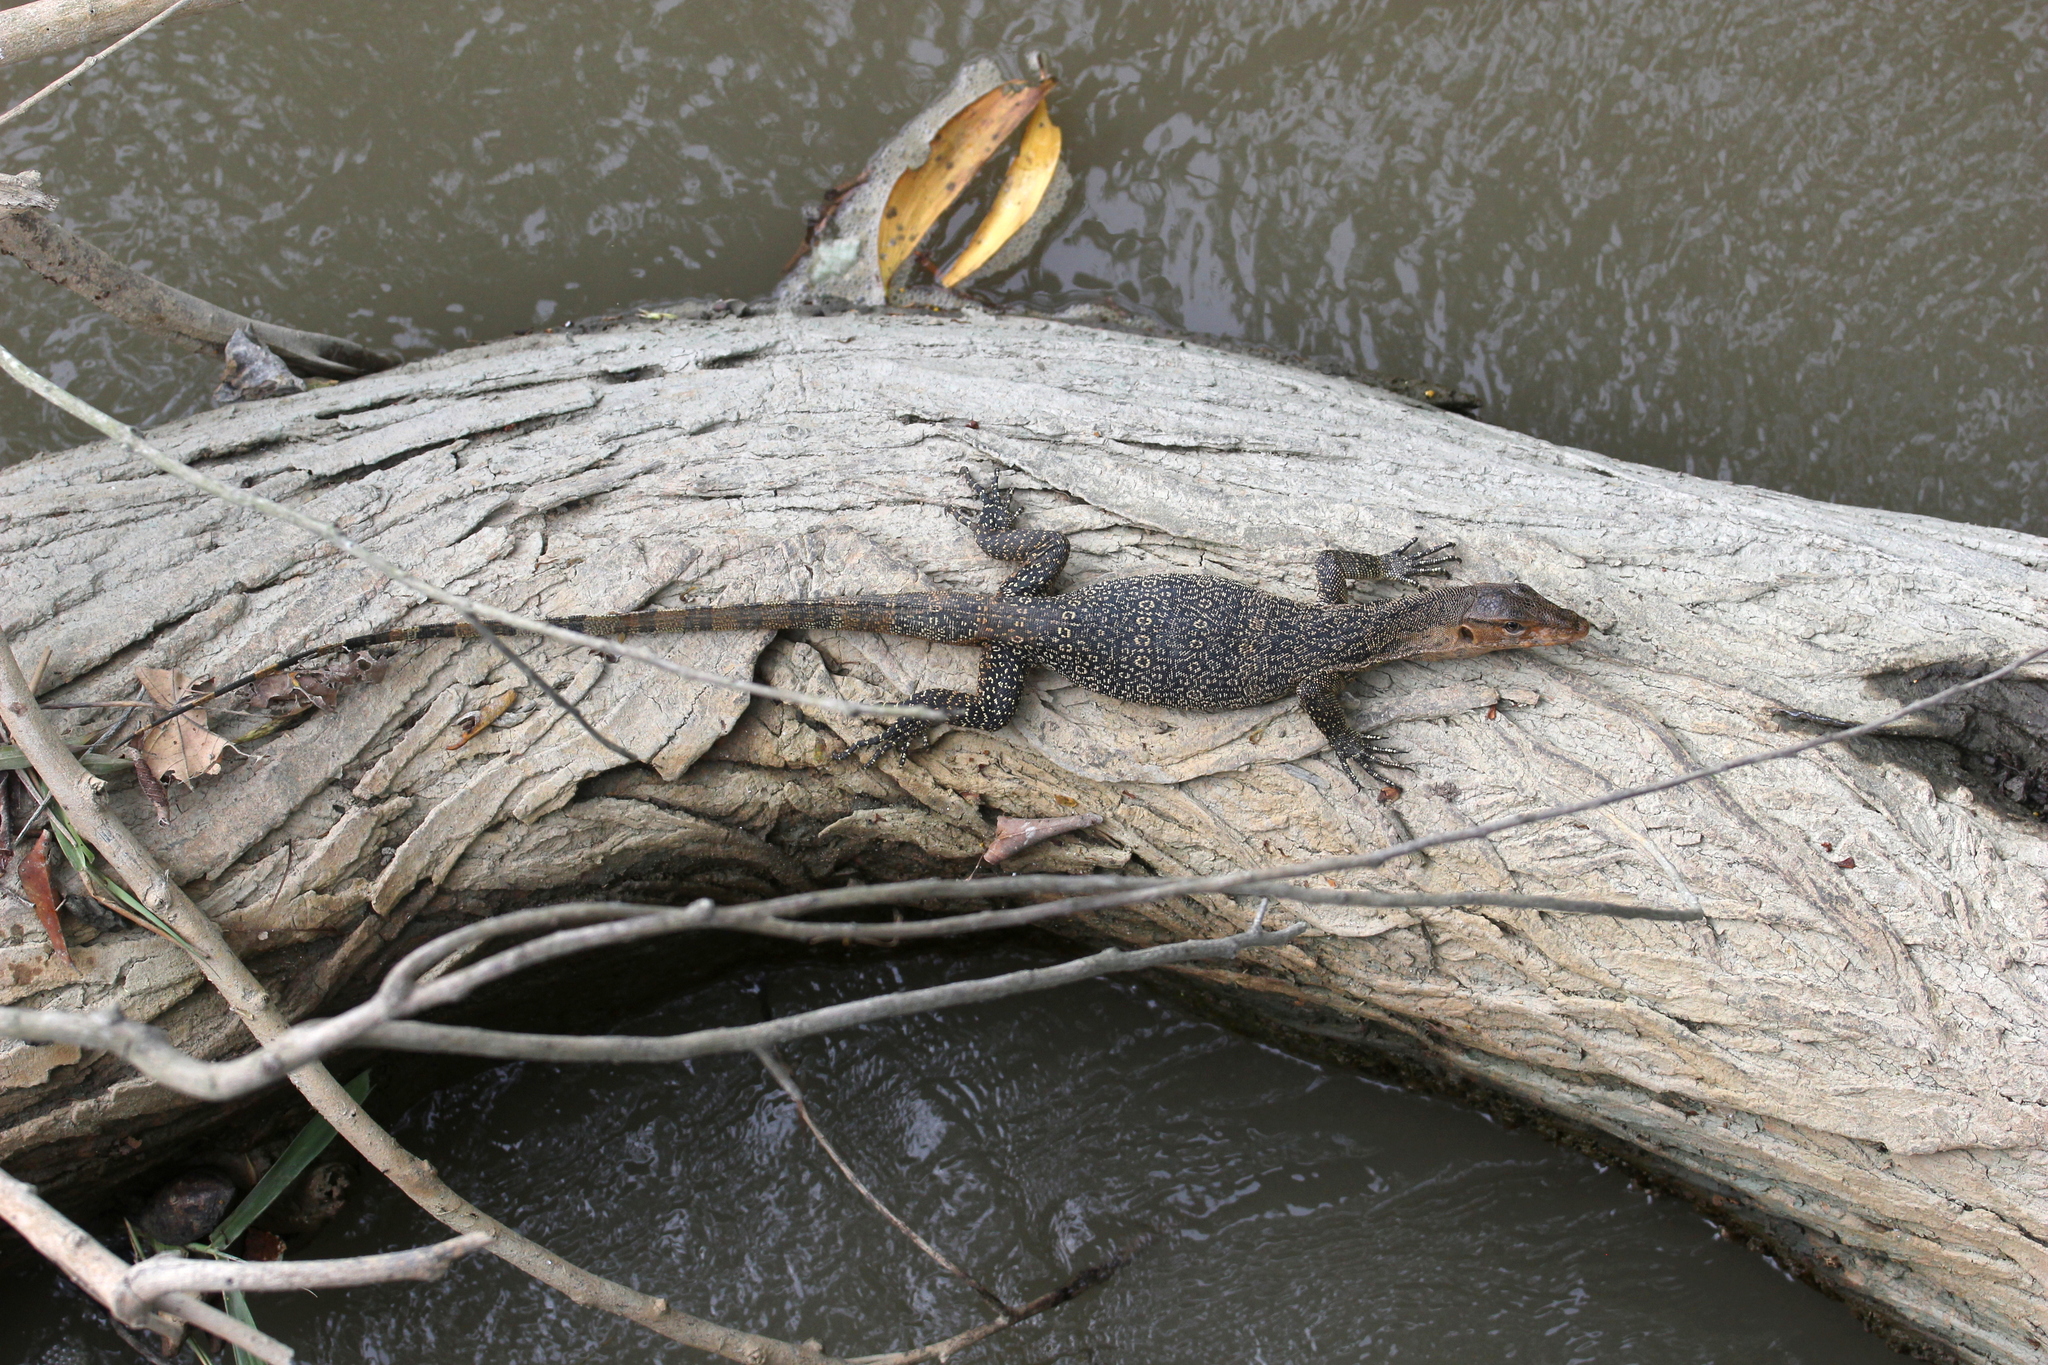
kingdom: Animalia
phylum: Chordata
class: Squamata
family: Varanidae
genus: Varanus
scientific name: Varanus salvator
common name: Common water monitor
